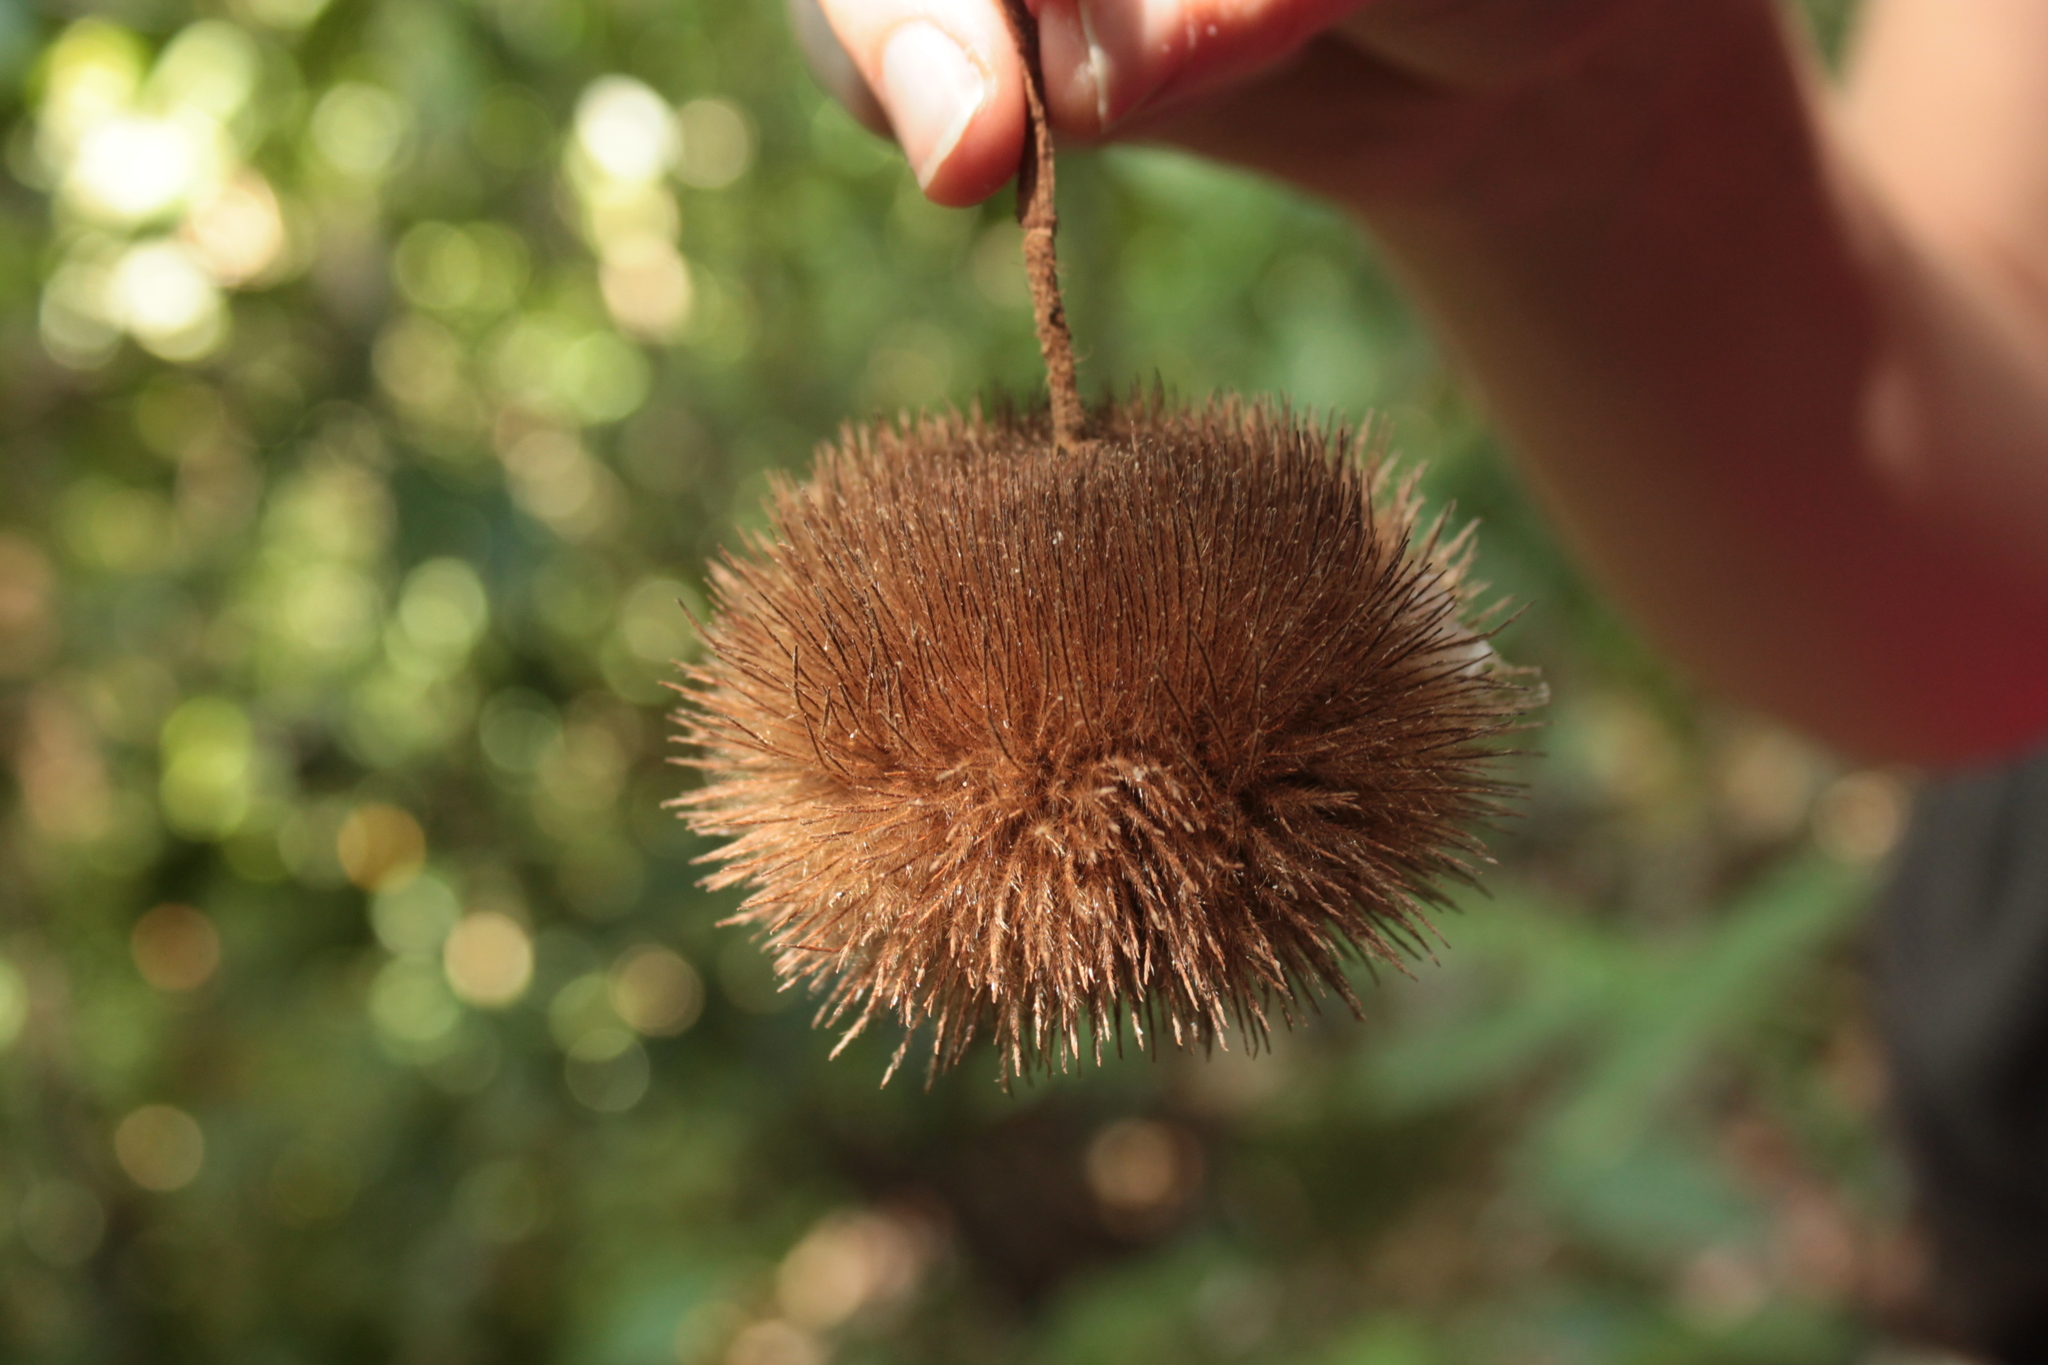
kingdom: Plantae
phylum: Tracheophyta
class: Magnoliopsida
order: Malvales
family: Malvaceae
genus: Apeiba
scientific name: Apeiba tibourbou
